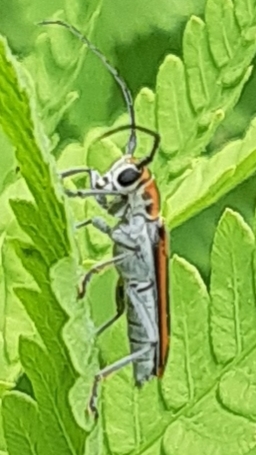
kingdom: Animalia
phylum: Arthropoda
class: Insecta
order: Coleoptera
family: Cerambycidae
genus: Saperda
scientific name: Saperda imitans
